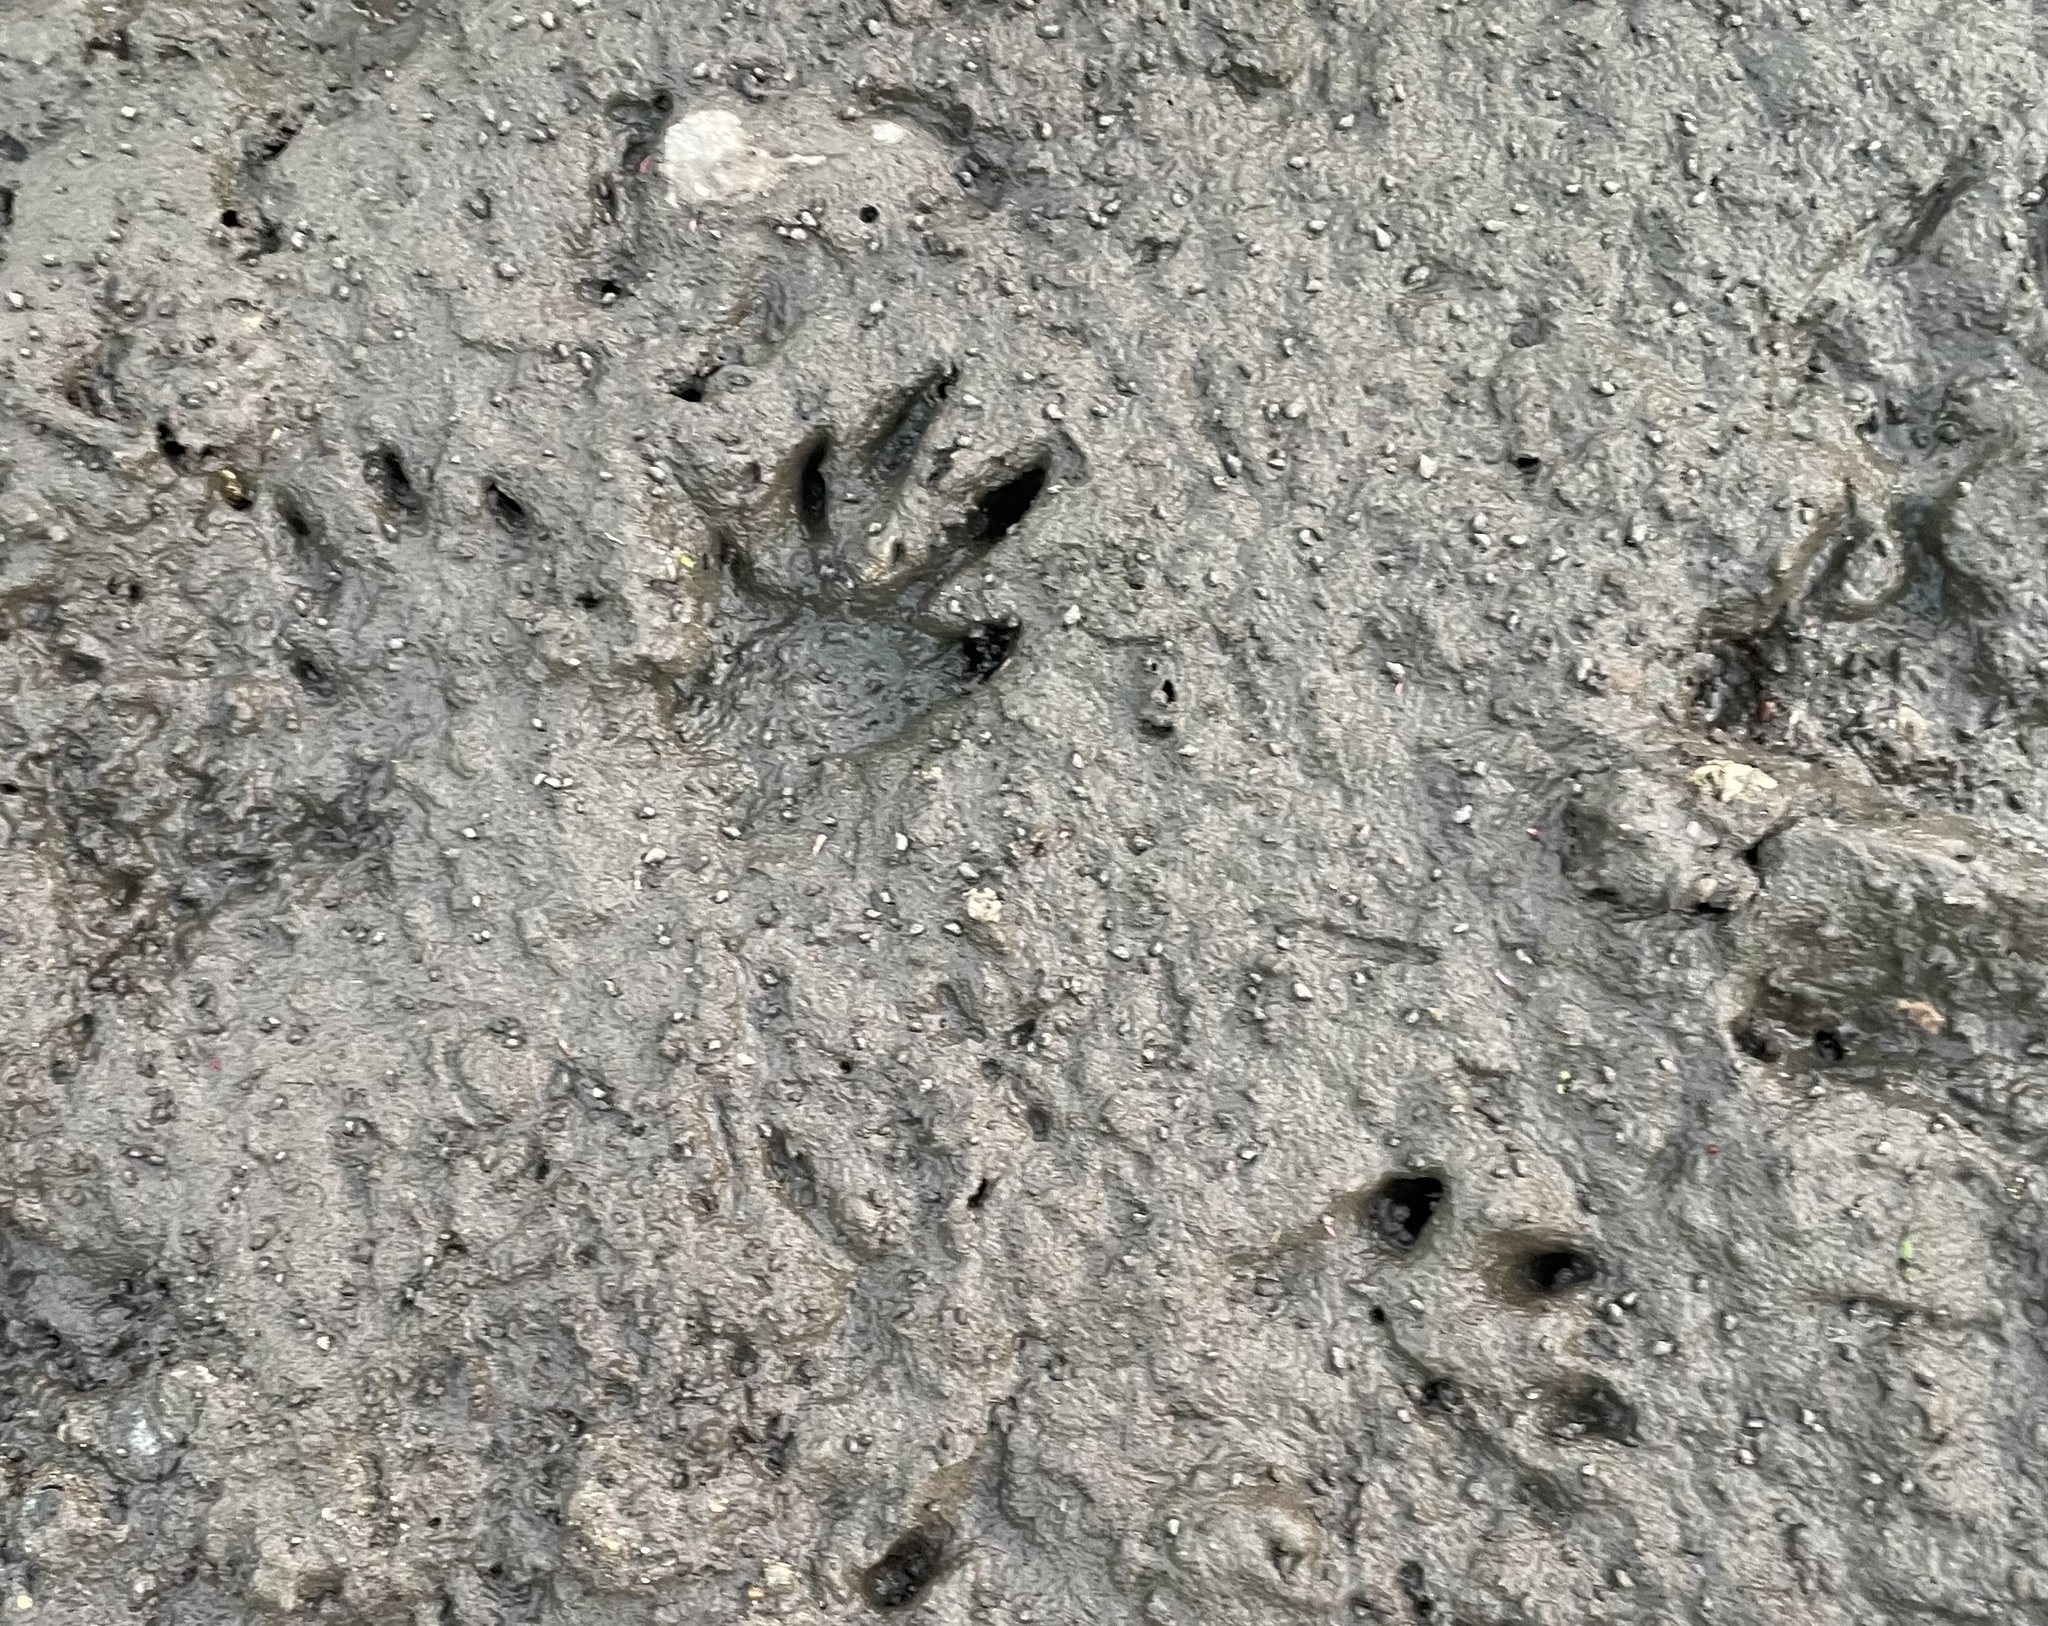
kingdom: Animalia
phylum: Chordata
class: Mammalia
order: Carnivora
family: Procyonidae
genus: Procyon
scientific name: Procyon lotor
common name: Raccoon
